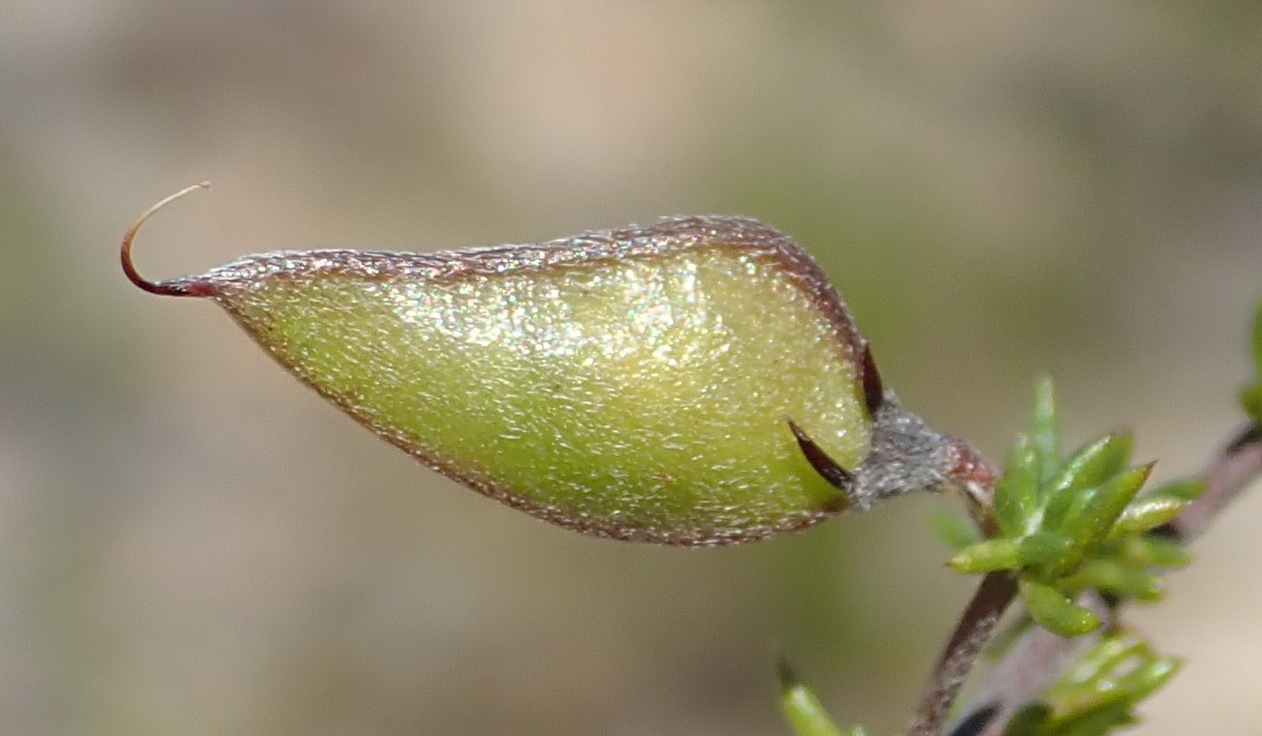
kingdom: Plantae
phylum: Tracheophyta
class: Magnoliopsida
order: Fabales
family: Fabaceae
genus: Aspalathus
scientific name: Aspalathus rubens
